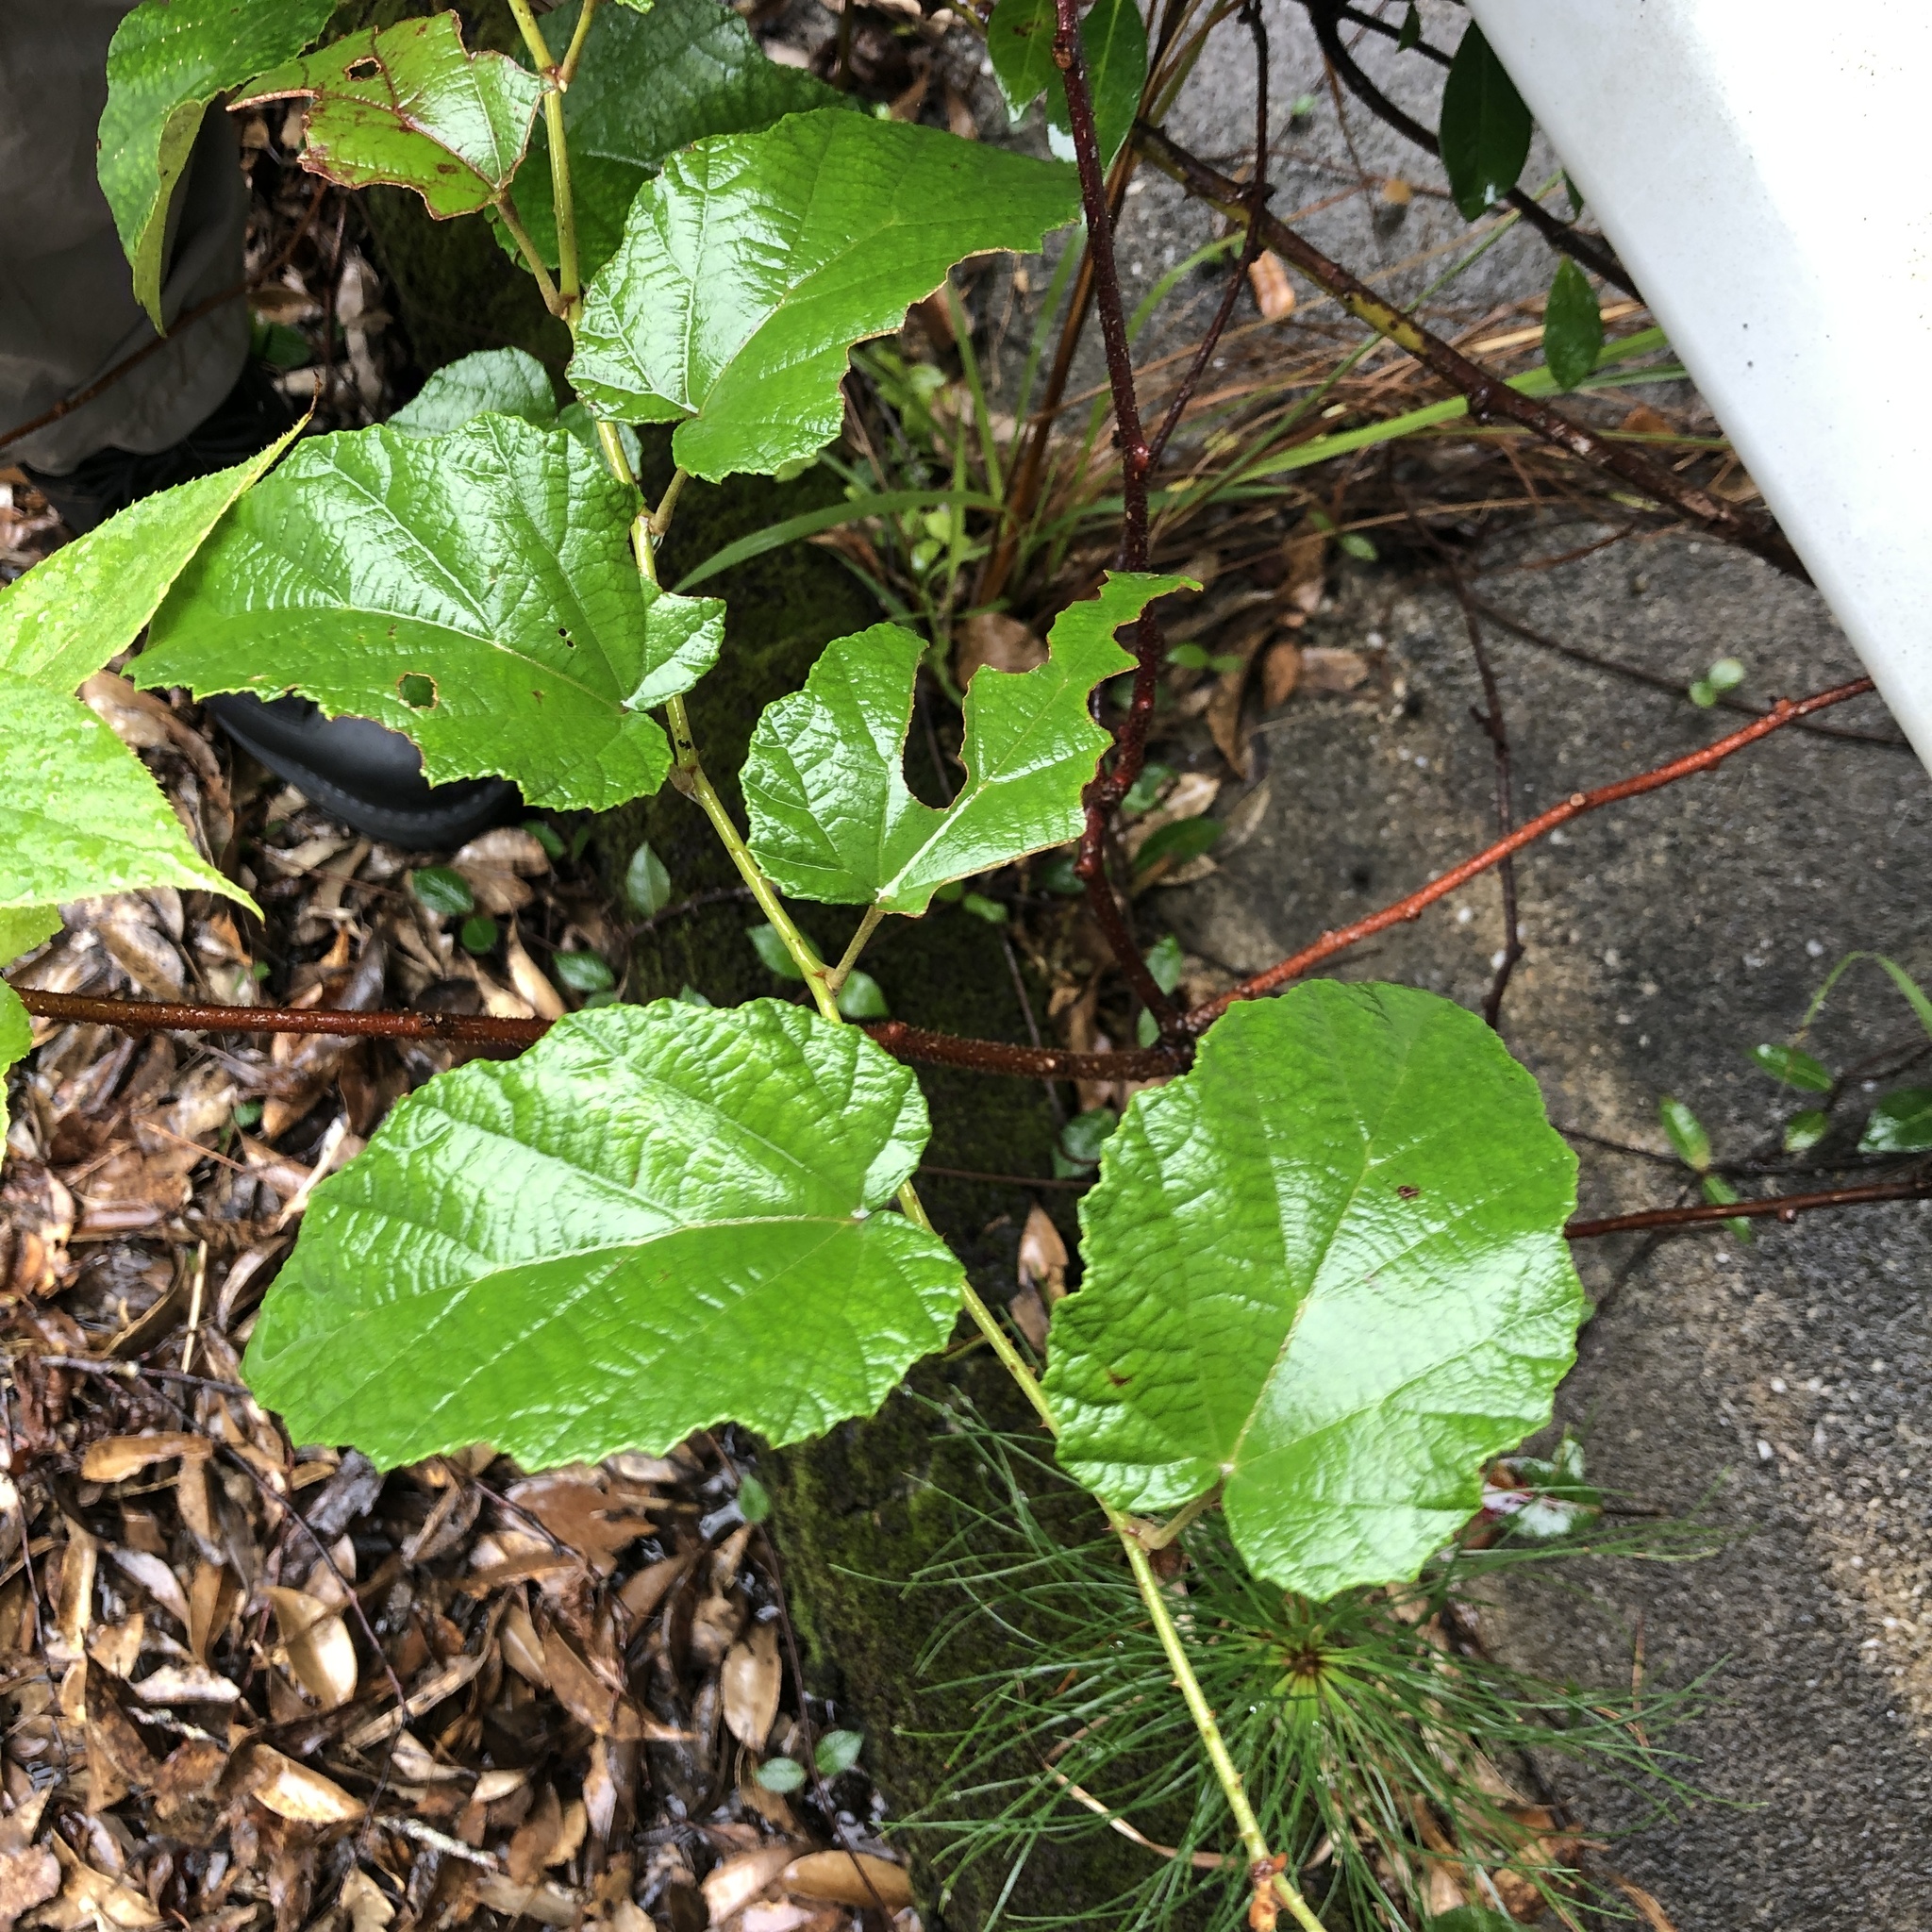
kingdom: Plantae
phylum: Tracheophyta
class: Magnoliopsida
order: Rosales
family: Rosaceae
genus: Rubus
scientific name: Rubus sieboldii
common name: Molucca raspberry
